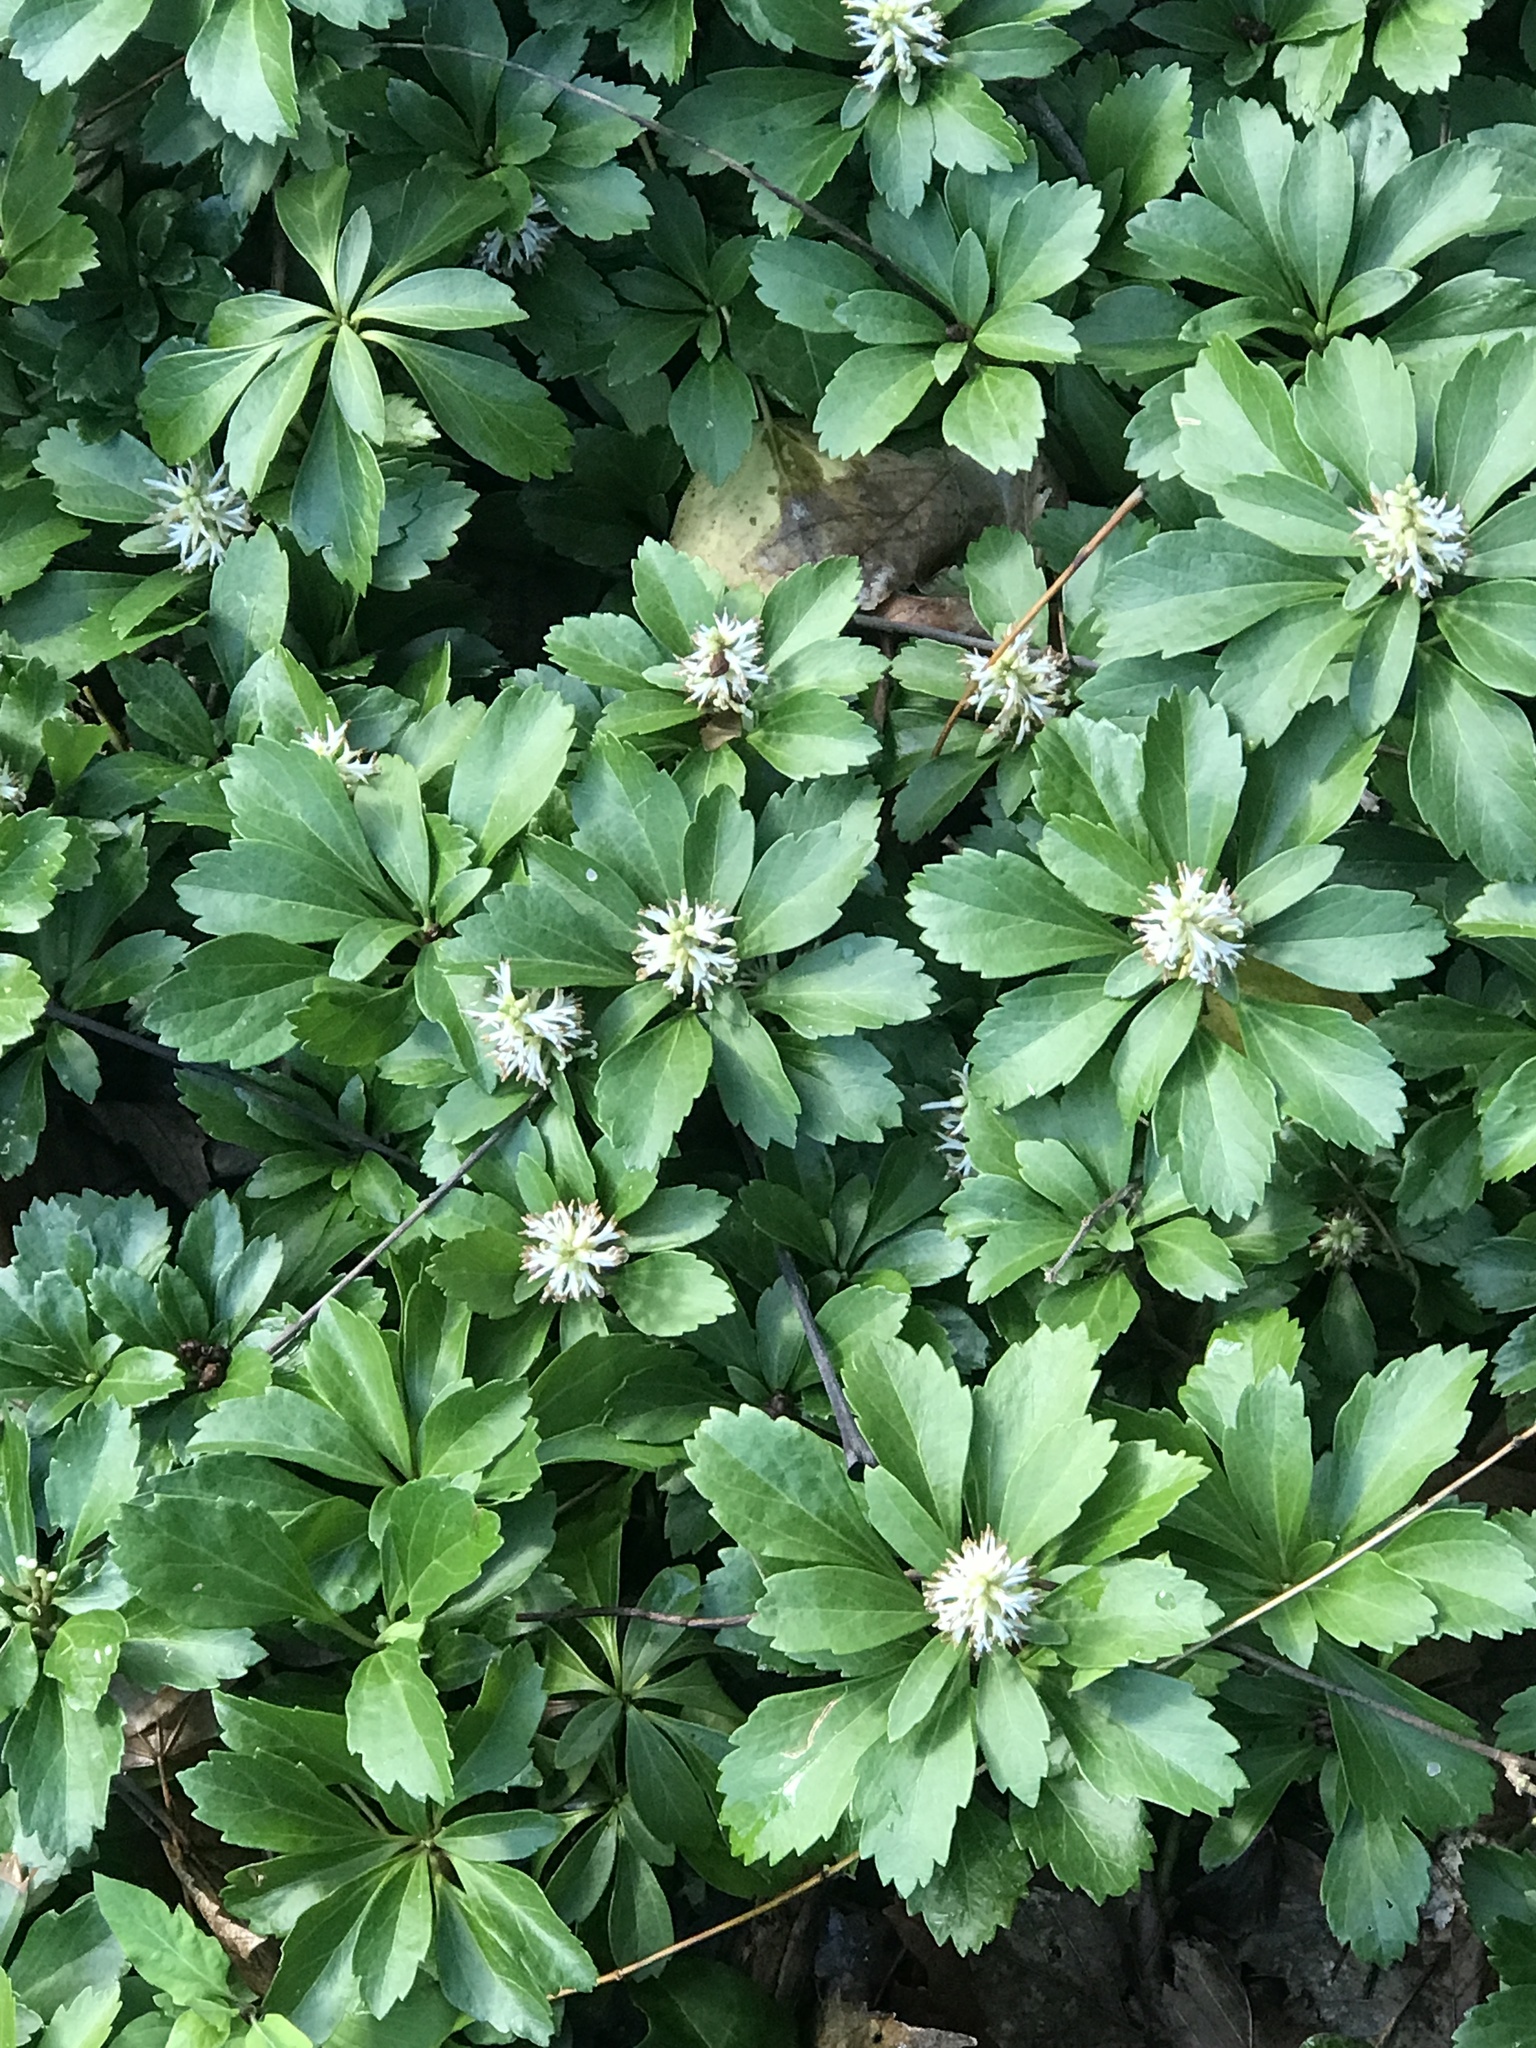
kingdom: Plantae
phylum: Tracheophyta
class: Magnoliopsida
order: Buxales
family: Buxaceae
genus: Pachysandra
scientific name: Pachysandra terminalis
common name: Japanese pachysandra
